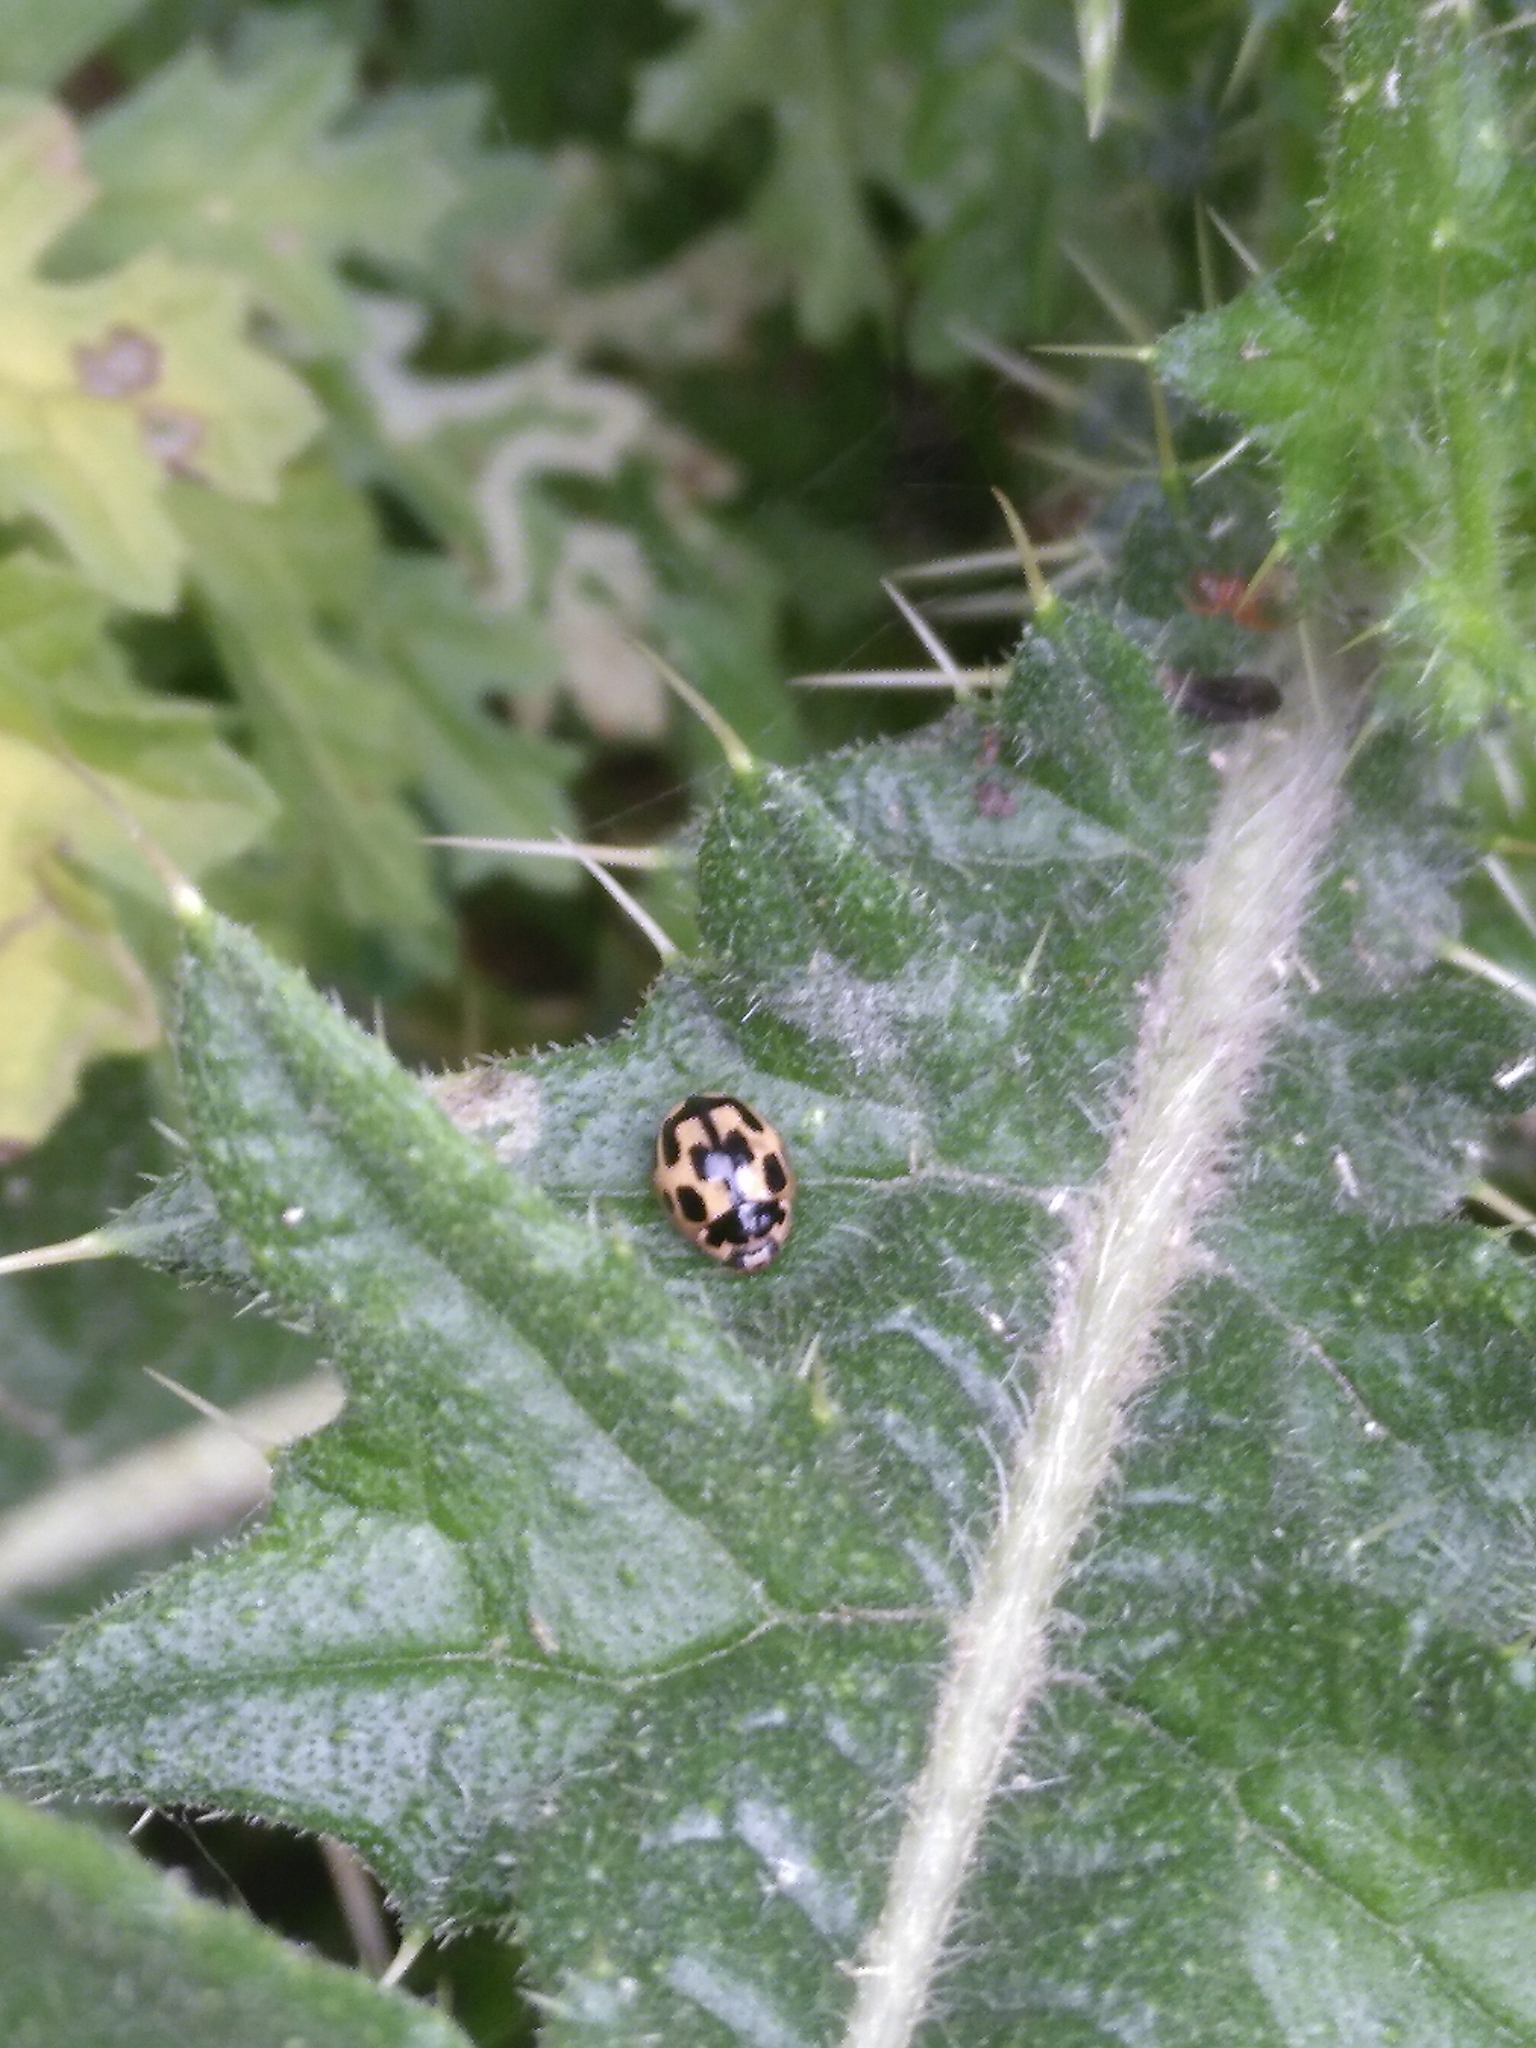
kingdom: Animalia
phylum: Arthropoda
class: Insecta
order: Coleoptera
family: Coccinellidae
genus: Propylaea
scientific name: Propylaea quatuordecimpunctata
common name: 14-spotted ladybird beetle
